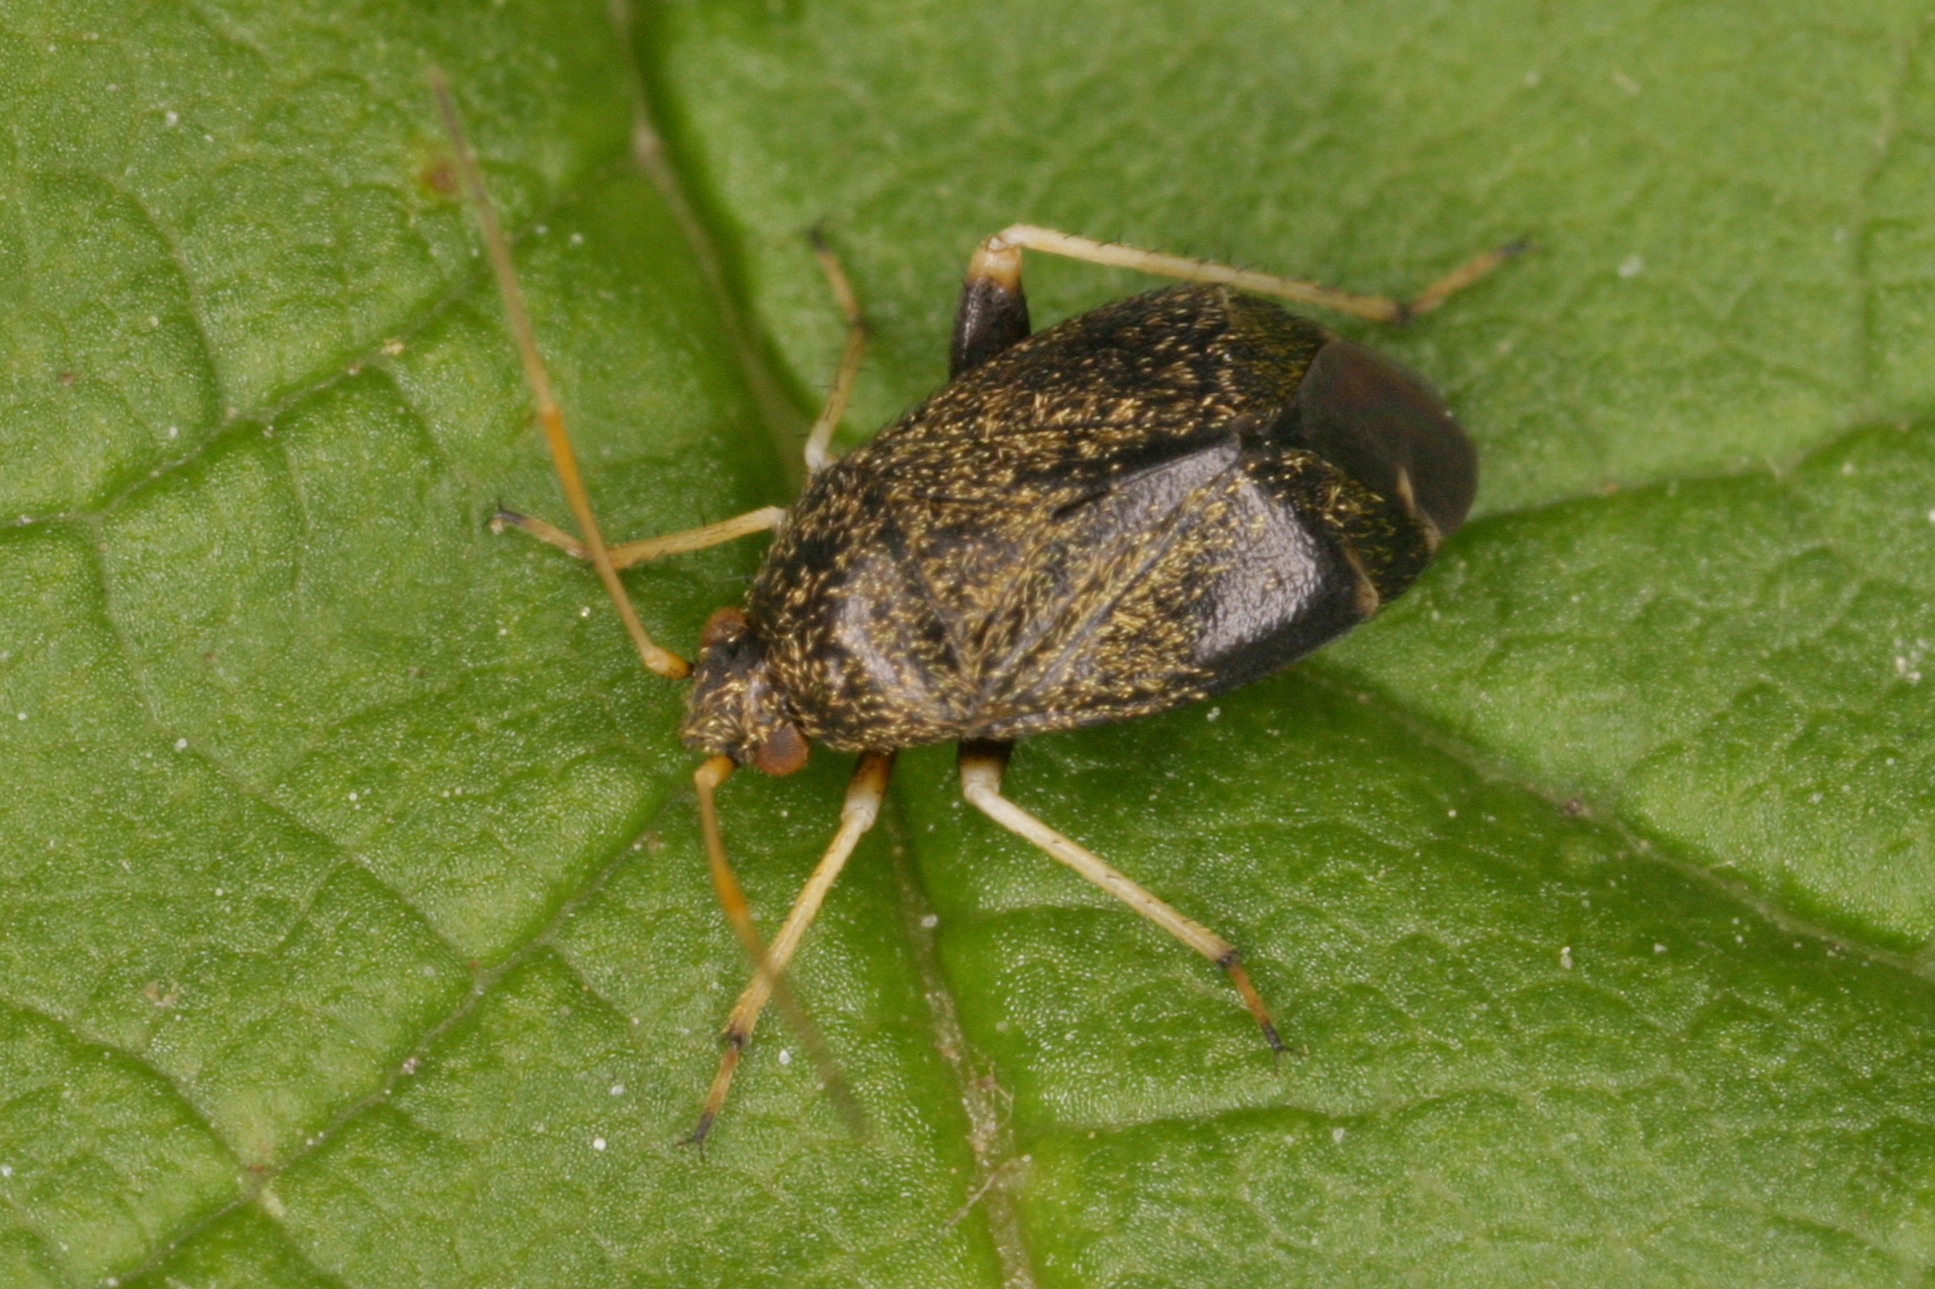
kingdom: Animalia
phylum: Arthropoda
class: Insecta
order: Hemiptera
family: Miridae
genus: Criocoris
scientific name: Criocoris crassicornis
